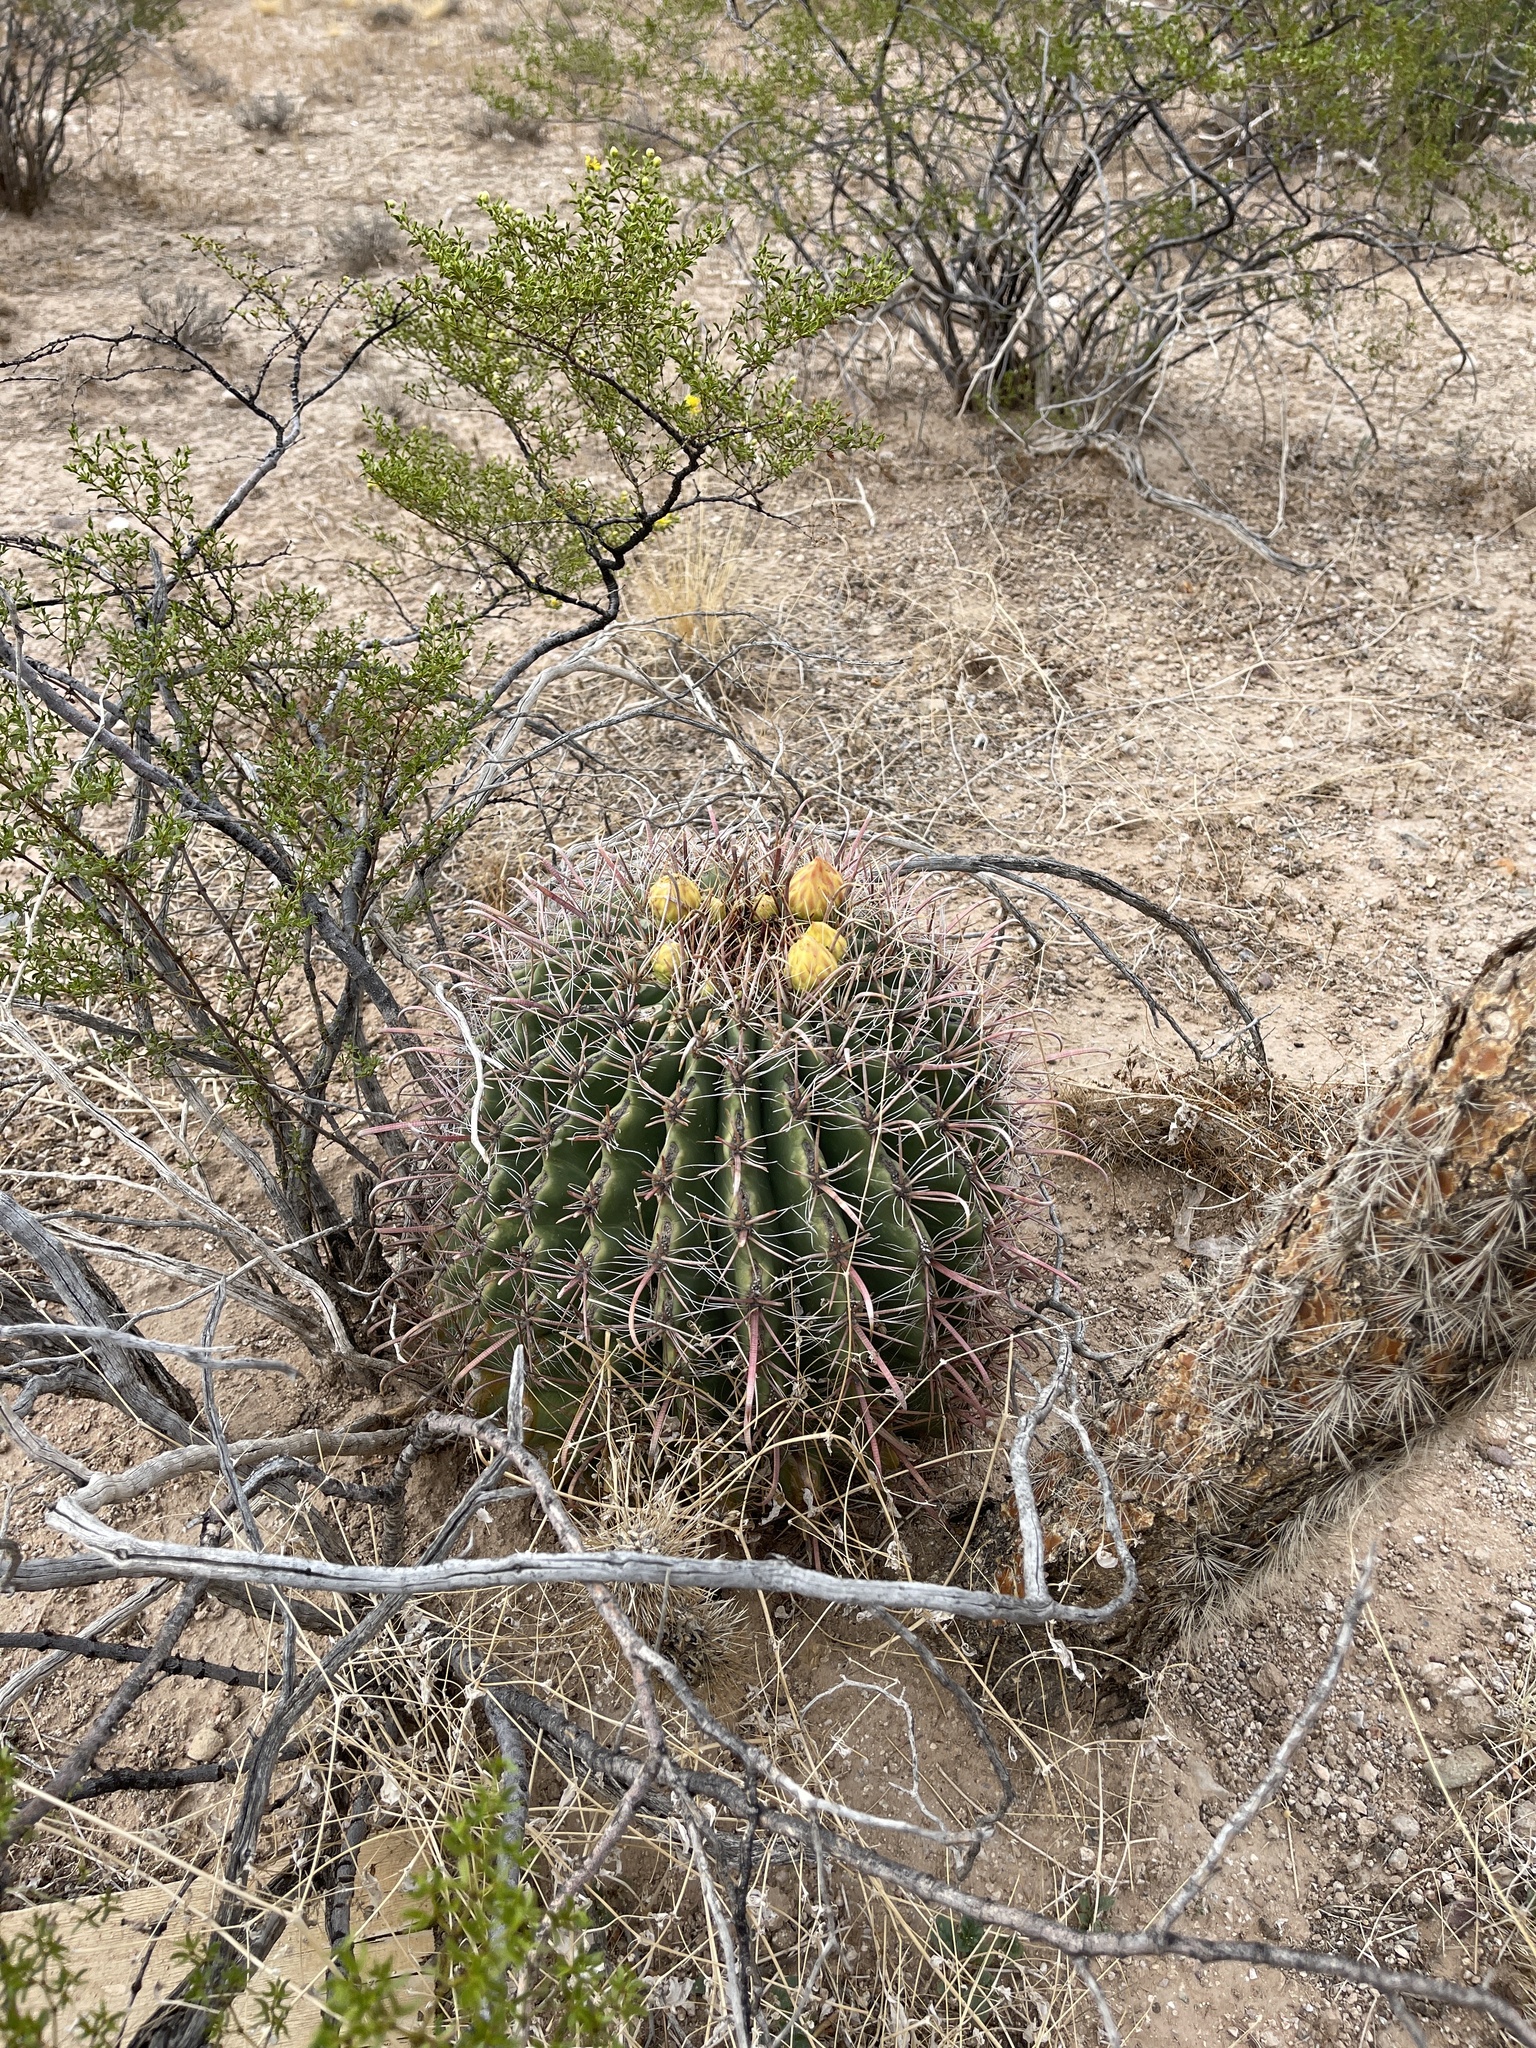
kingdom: Plantae
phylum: Tracheophyta
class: Magnoliopsida
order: Caryophyllales
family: Cactaceae
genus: Ferocactus
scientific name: Ferocactus wislizeni
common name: Candy barrel cactus
